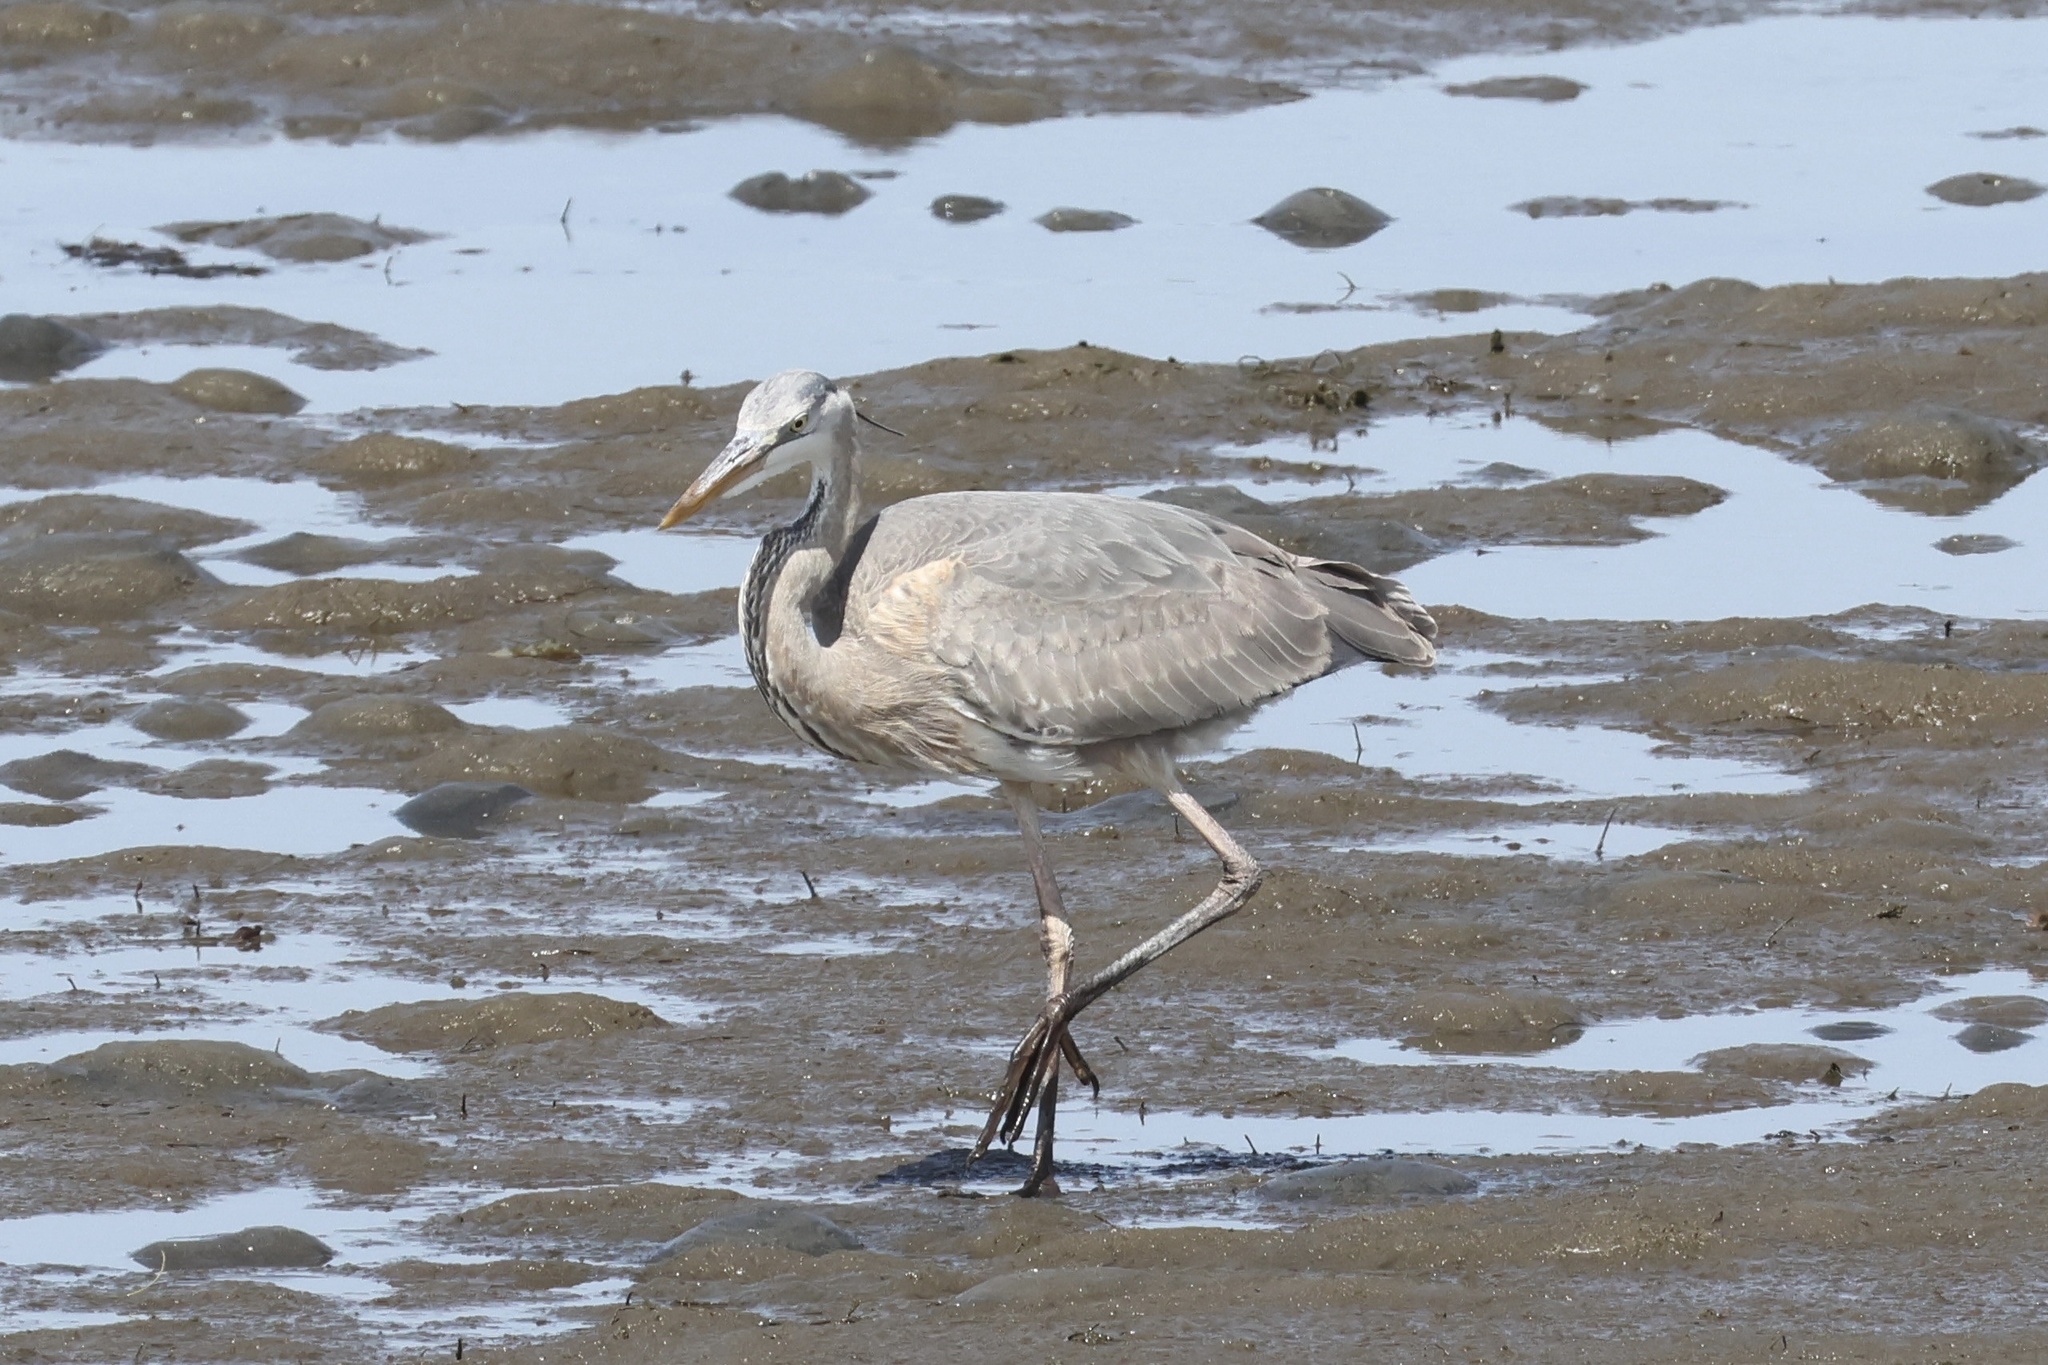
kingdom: Animalia
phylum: Chordata
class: Aves
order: Pelecaniformes
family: Ardeidae
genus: Ardea
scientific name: Ardea herodias
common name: Great blue heron
